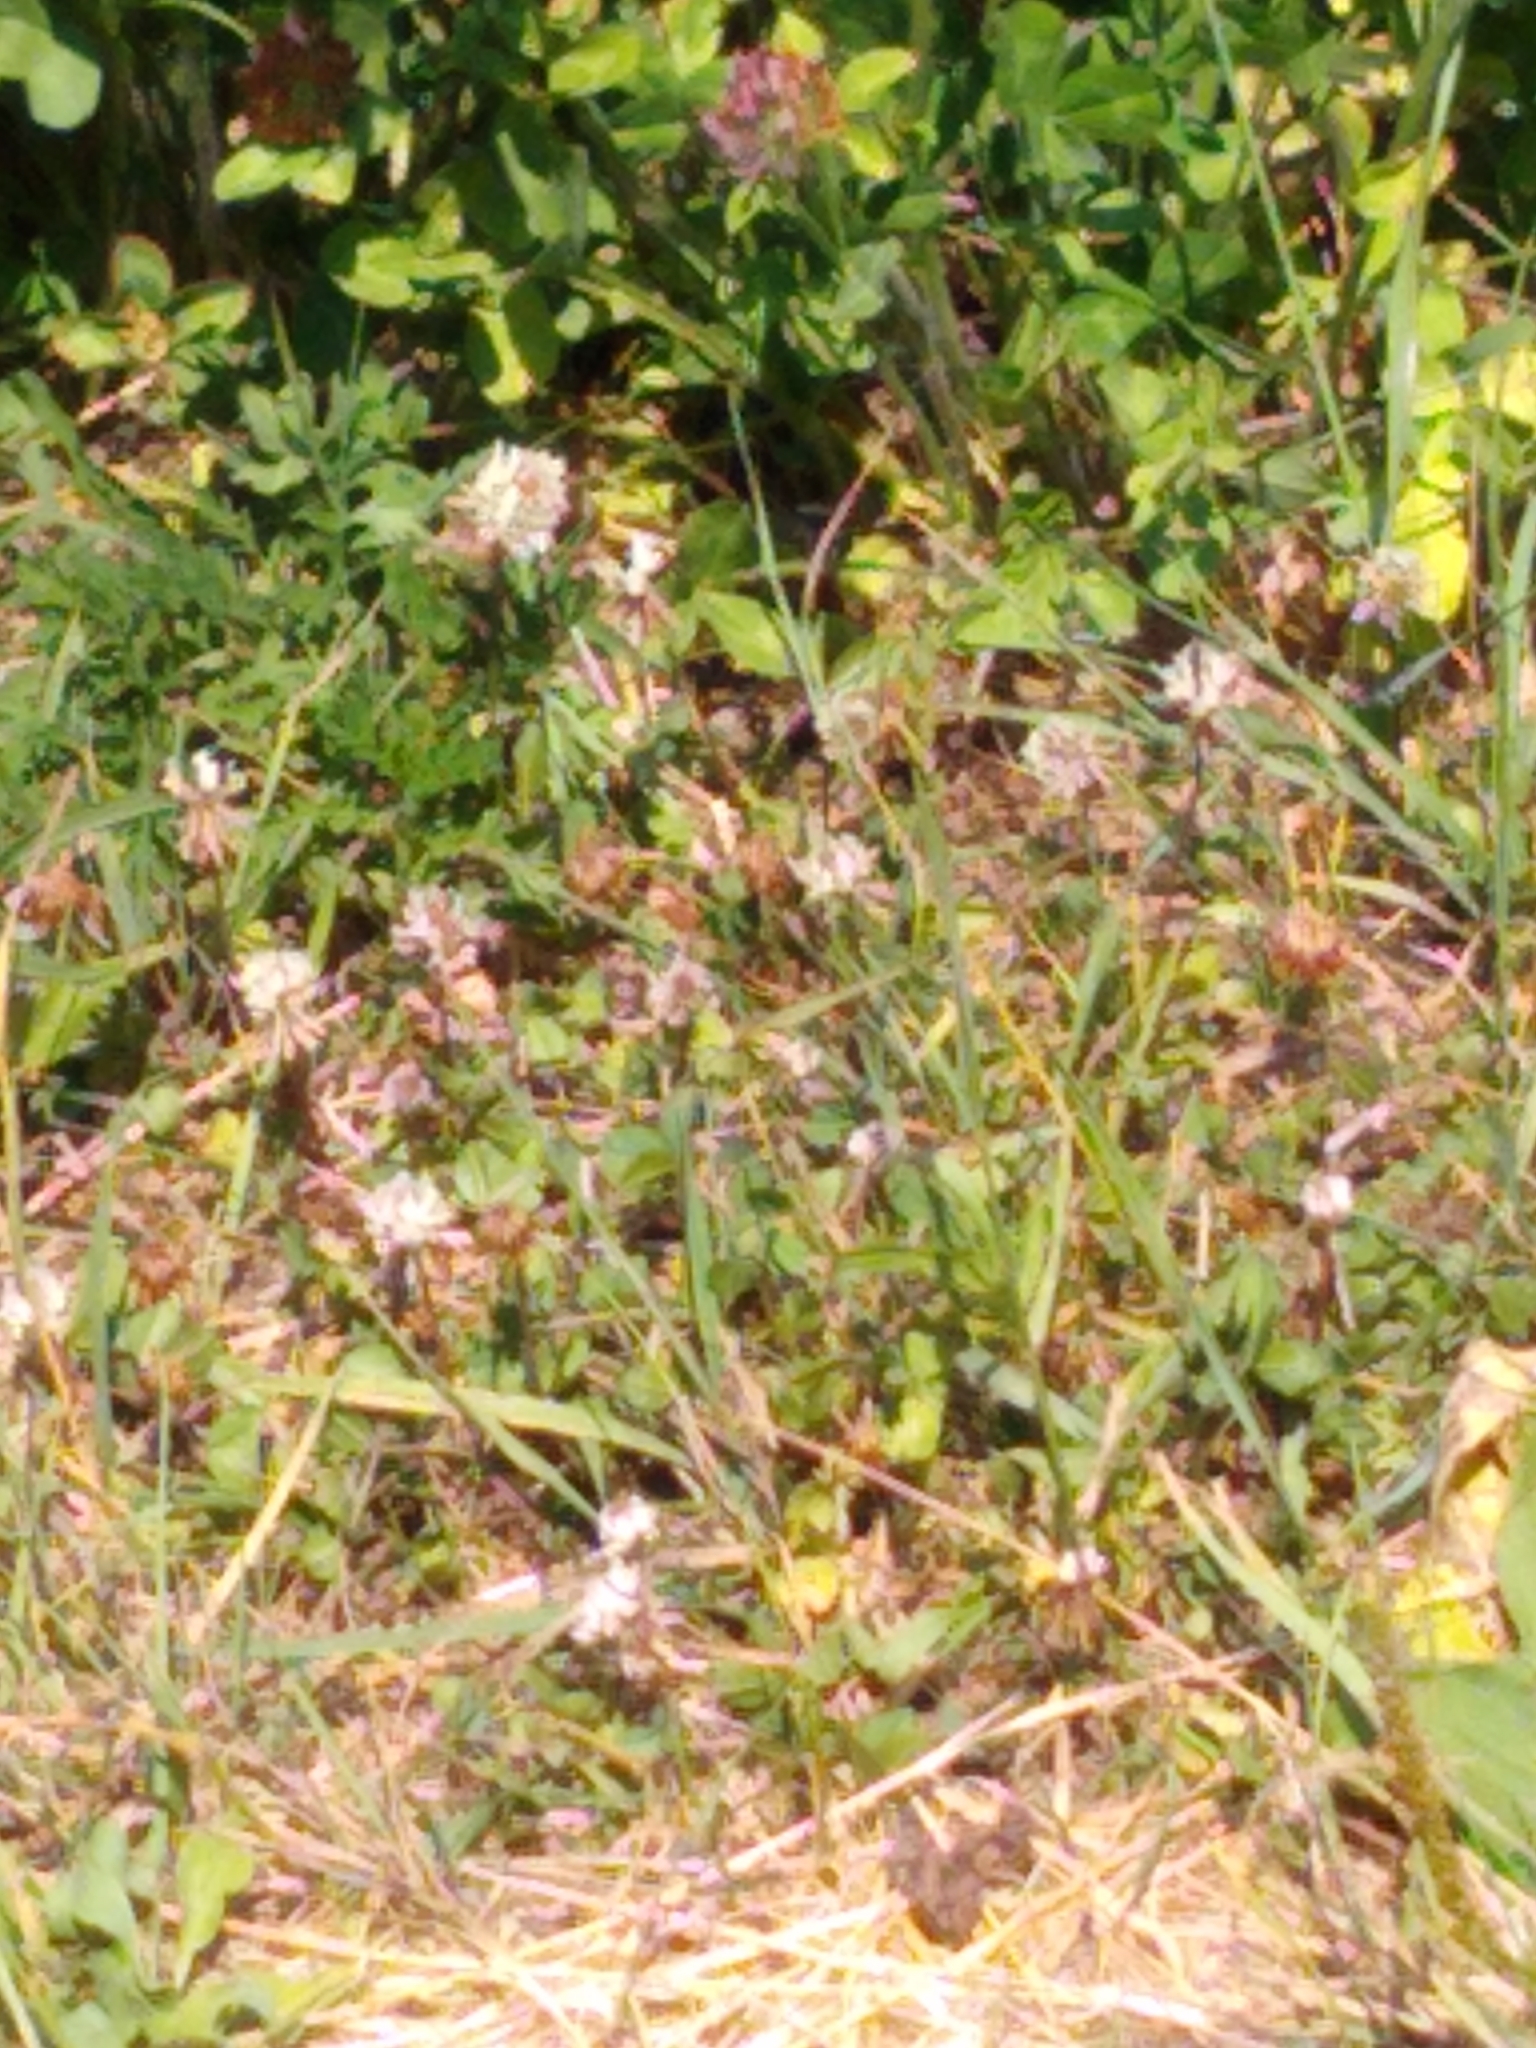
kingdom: Plantae
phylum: Tracheophyta
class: Magnoliopsida
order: Fabales
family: Fabaceae
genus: Trifolium
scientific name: Trifolium repens
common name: White clover
